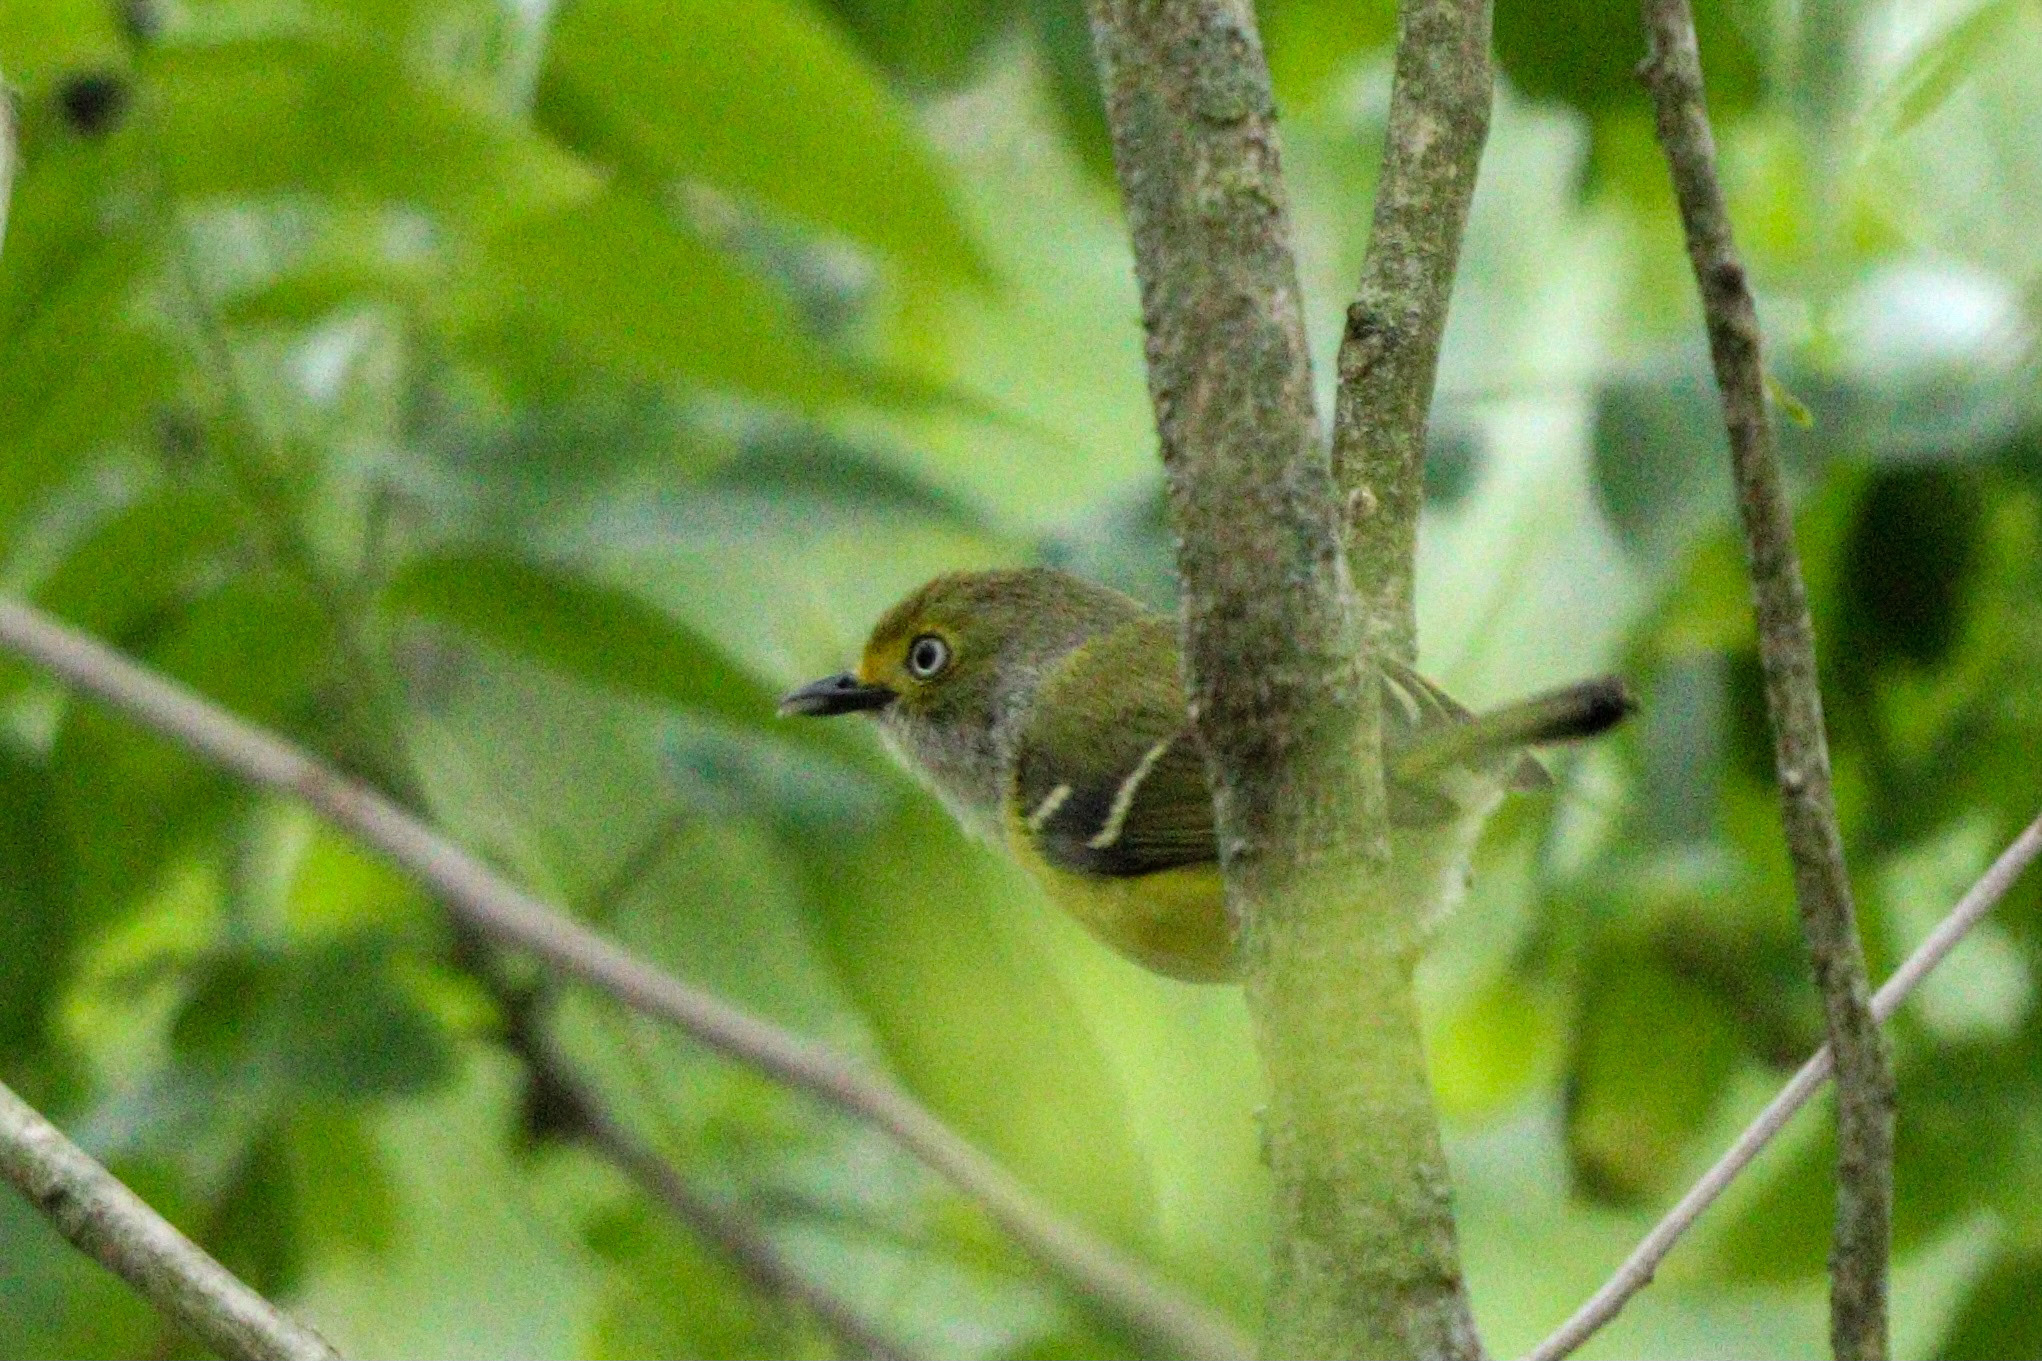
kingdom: Animalia
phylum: Chordata
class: Aves
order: Passeriformes
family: Vireonidae
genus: Vireo
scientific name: Vireo griseus
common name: White-eyed vireo
